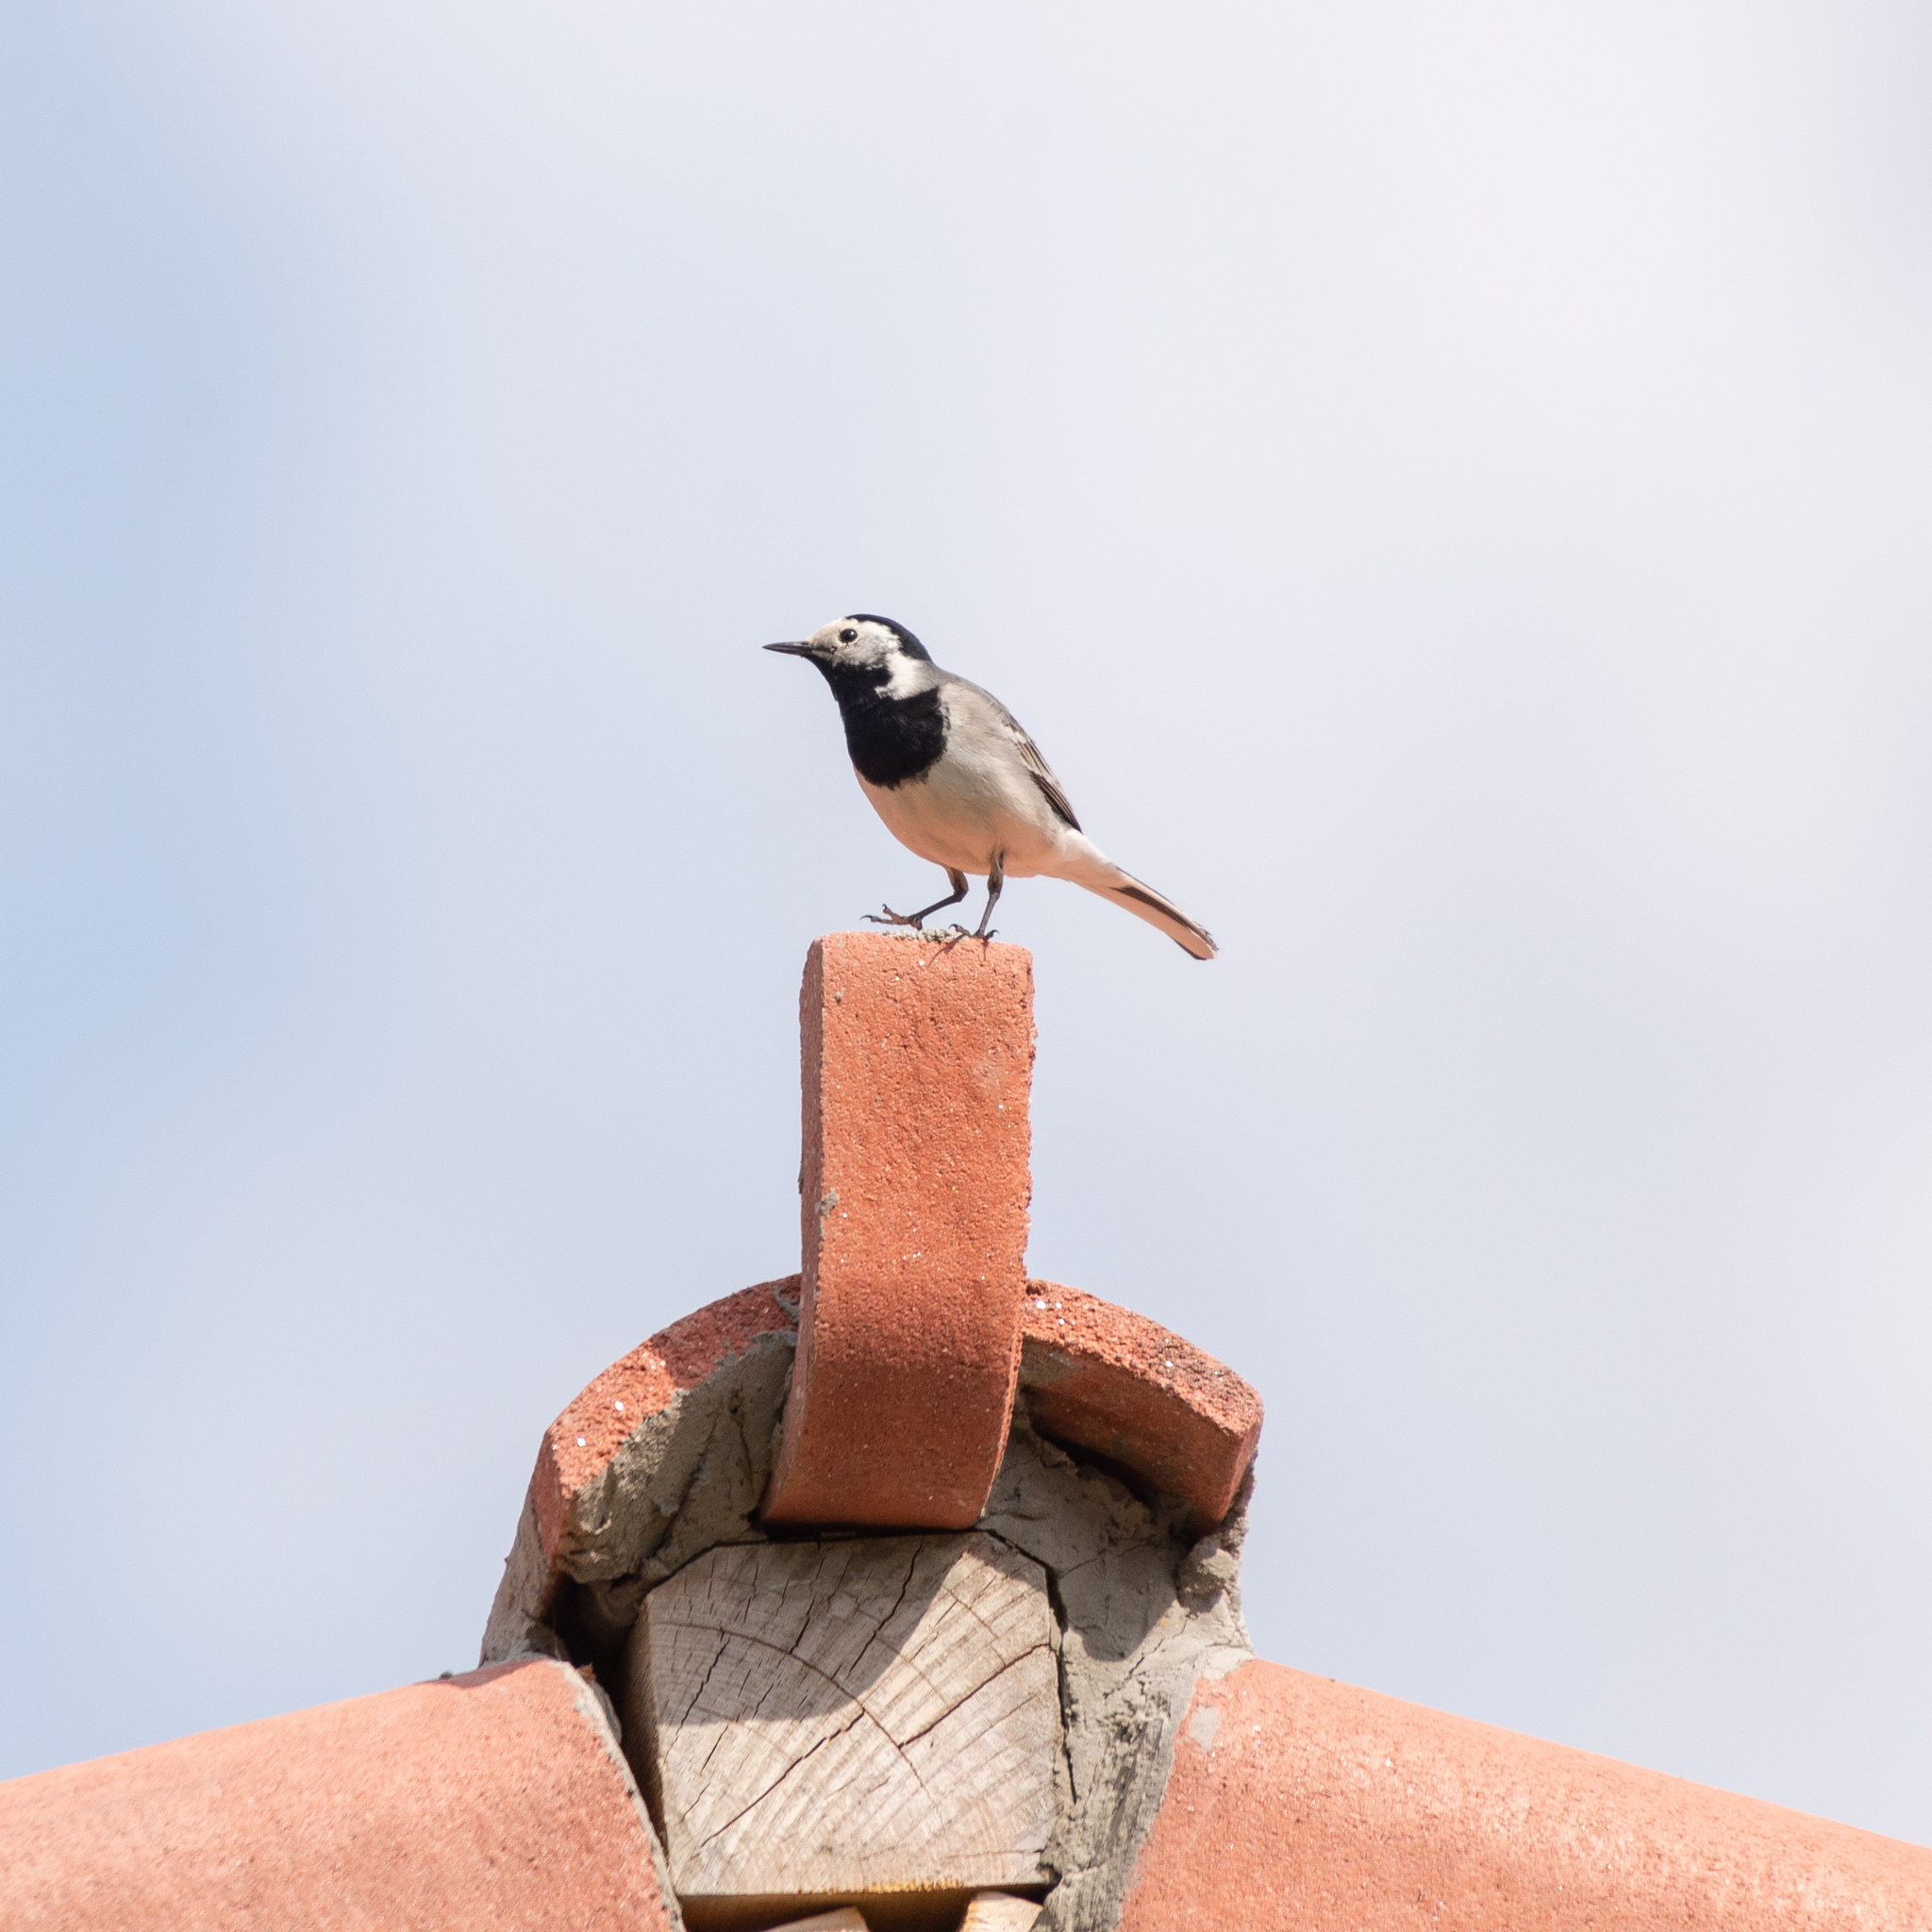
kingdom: Animalia
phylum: Chordata
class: Aves
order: Passeriformes
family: Motacillidae
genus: Motacilla
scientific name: Motacilla alba
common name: White wagtail
